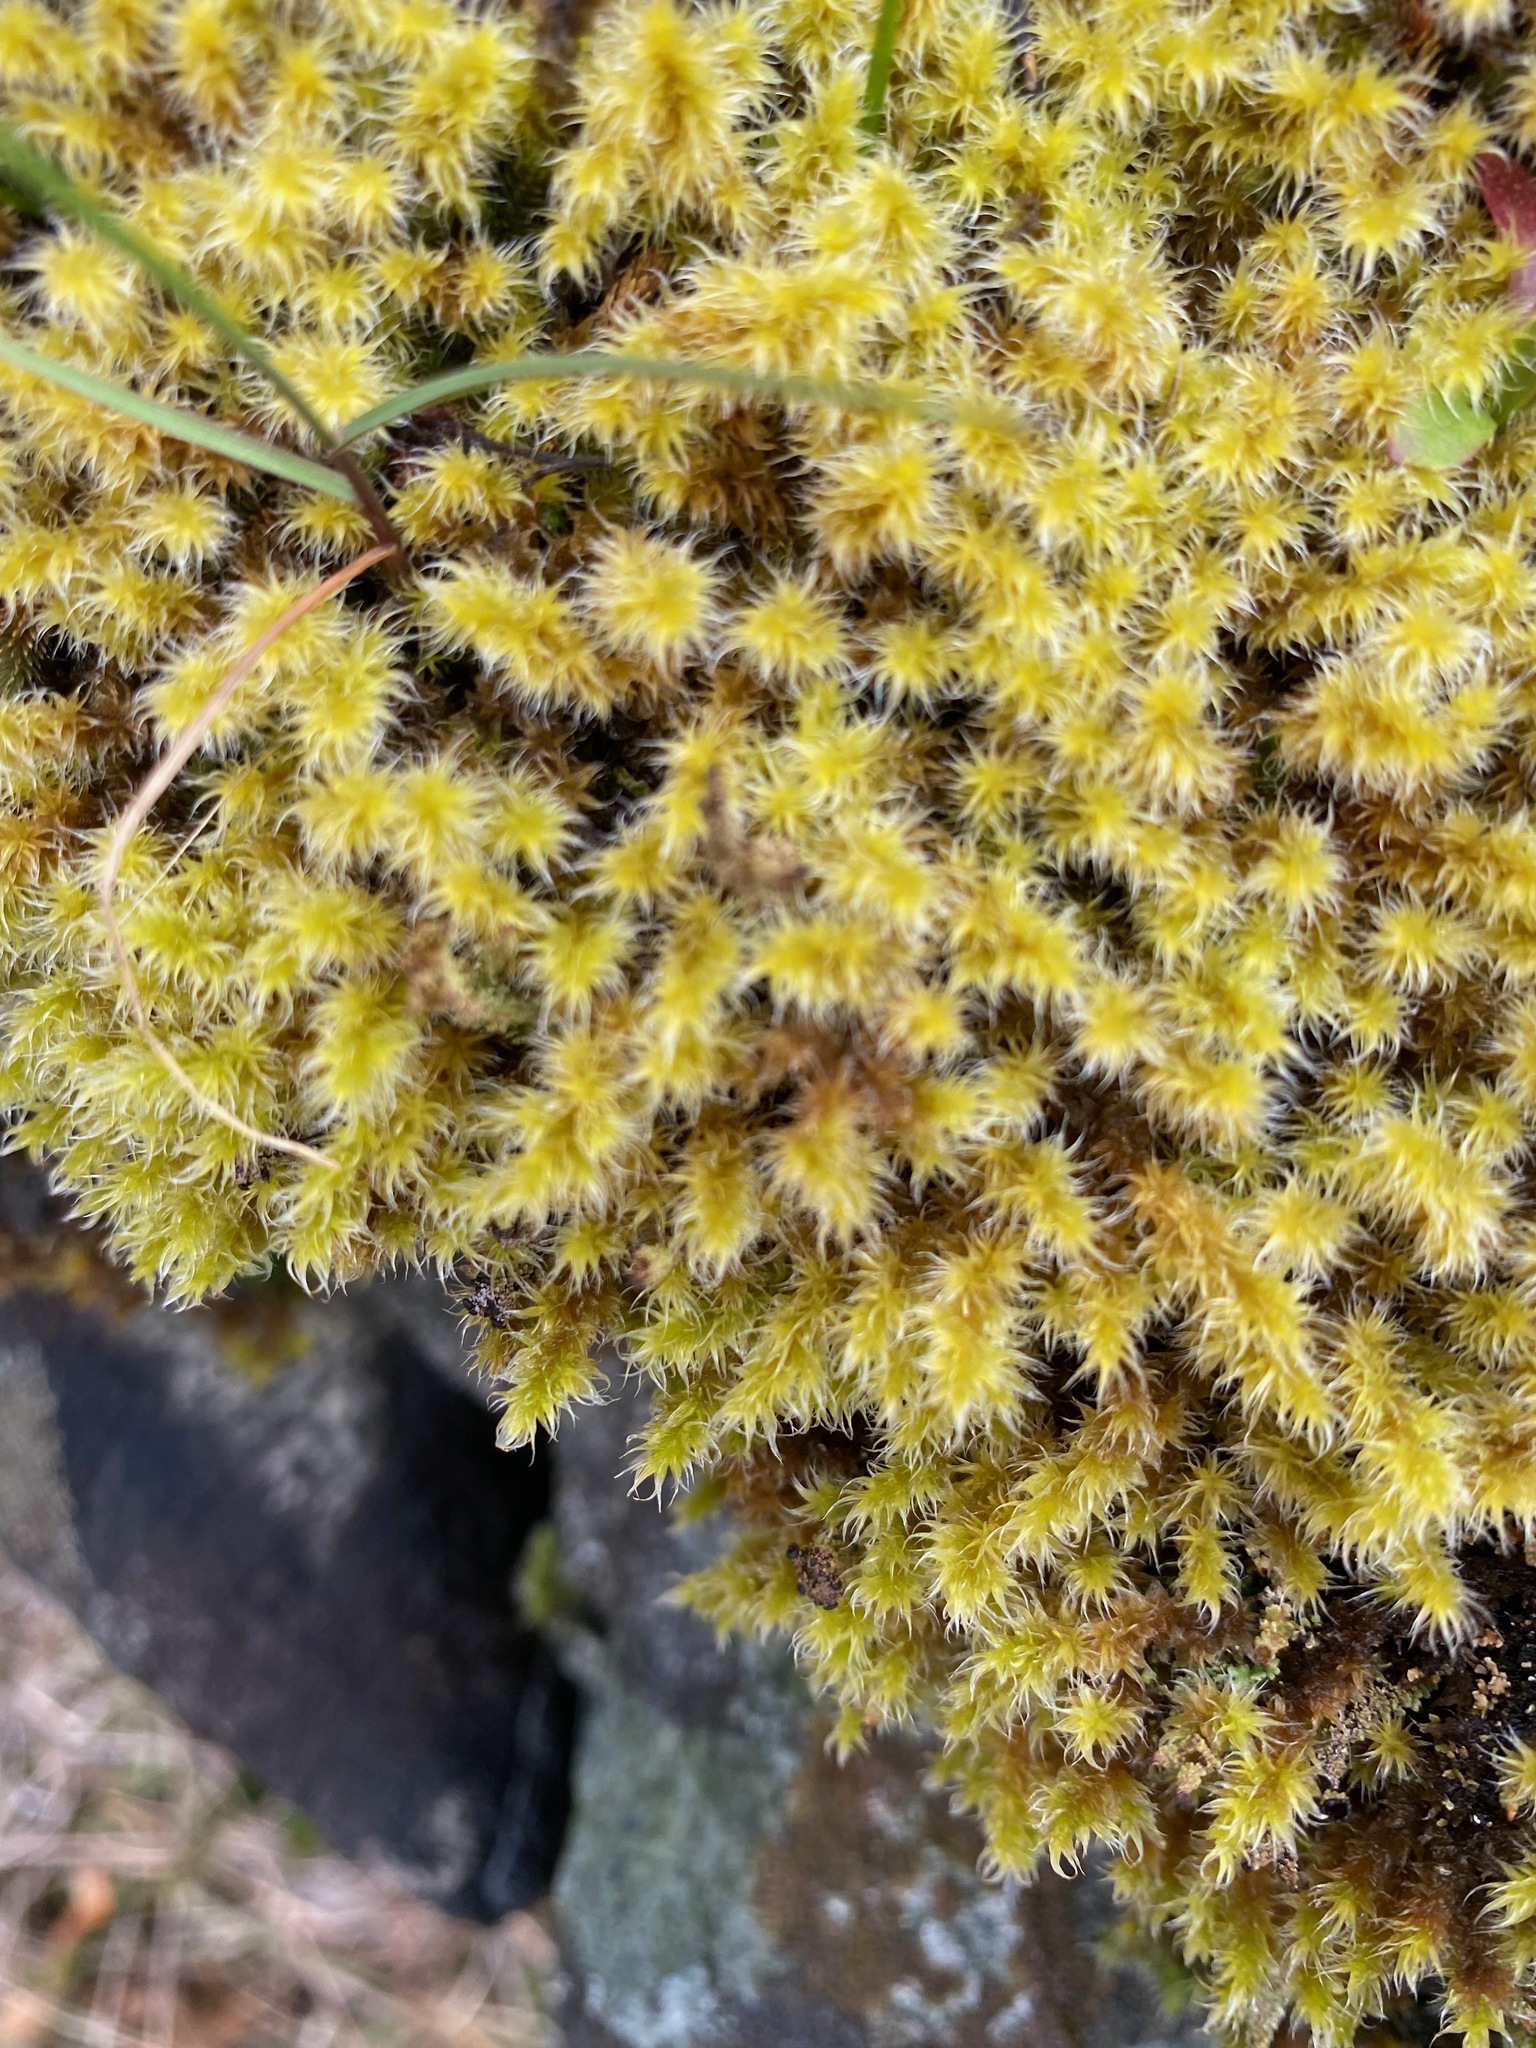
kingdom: Plantae
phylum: Bryophyta
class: Bryopsida
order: Grimmiales
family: Grimmiaceae
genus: Niphotrichum
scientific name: Niphotrichum elongatum
